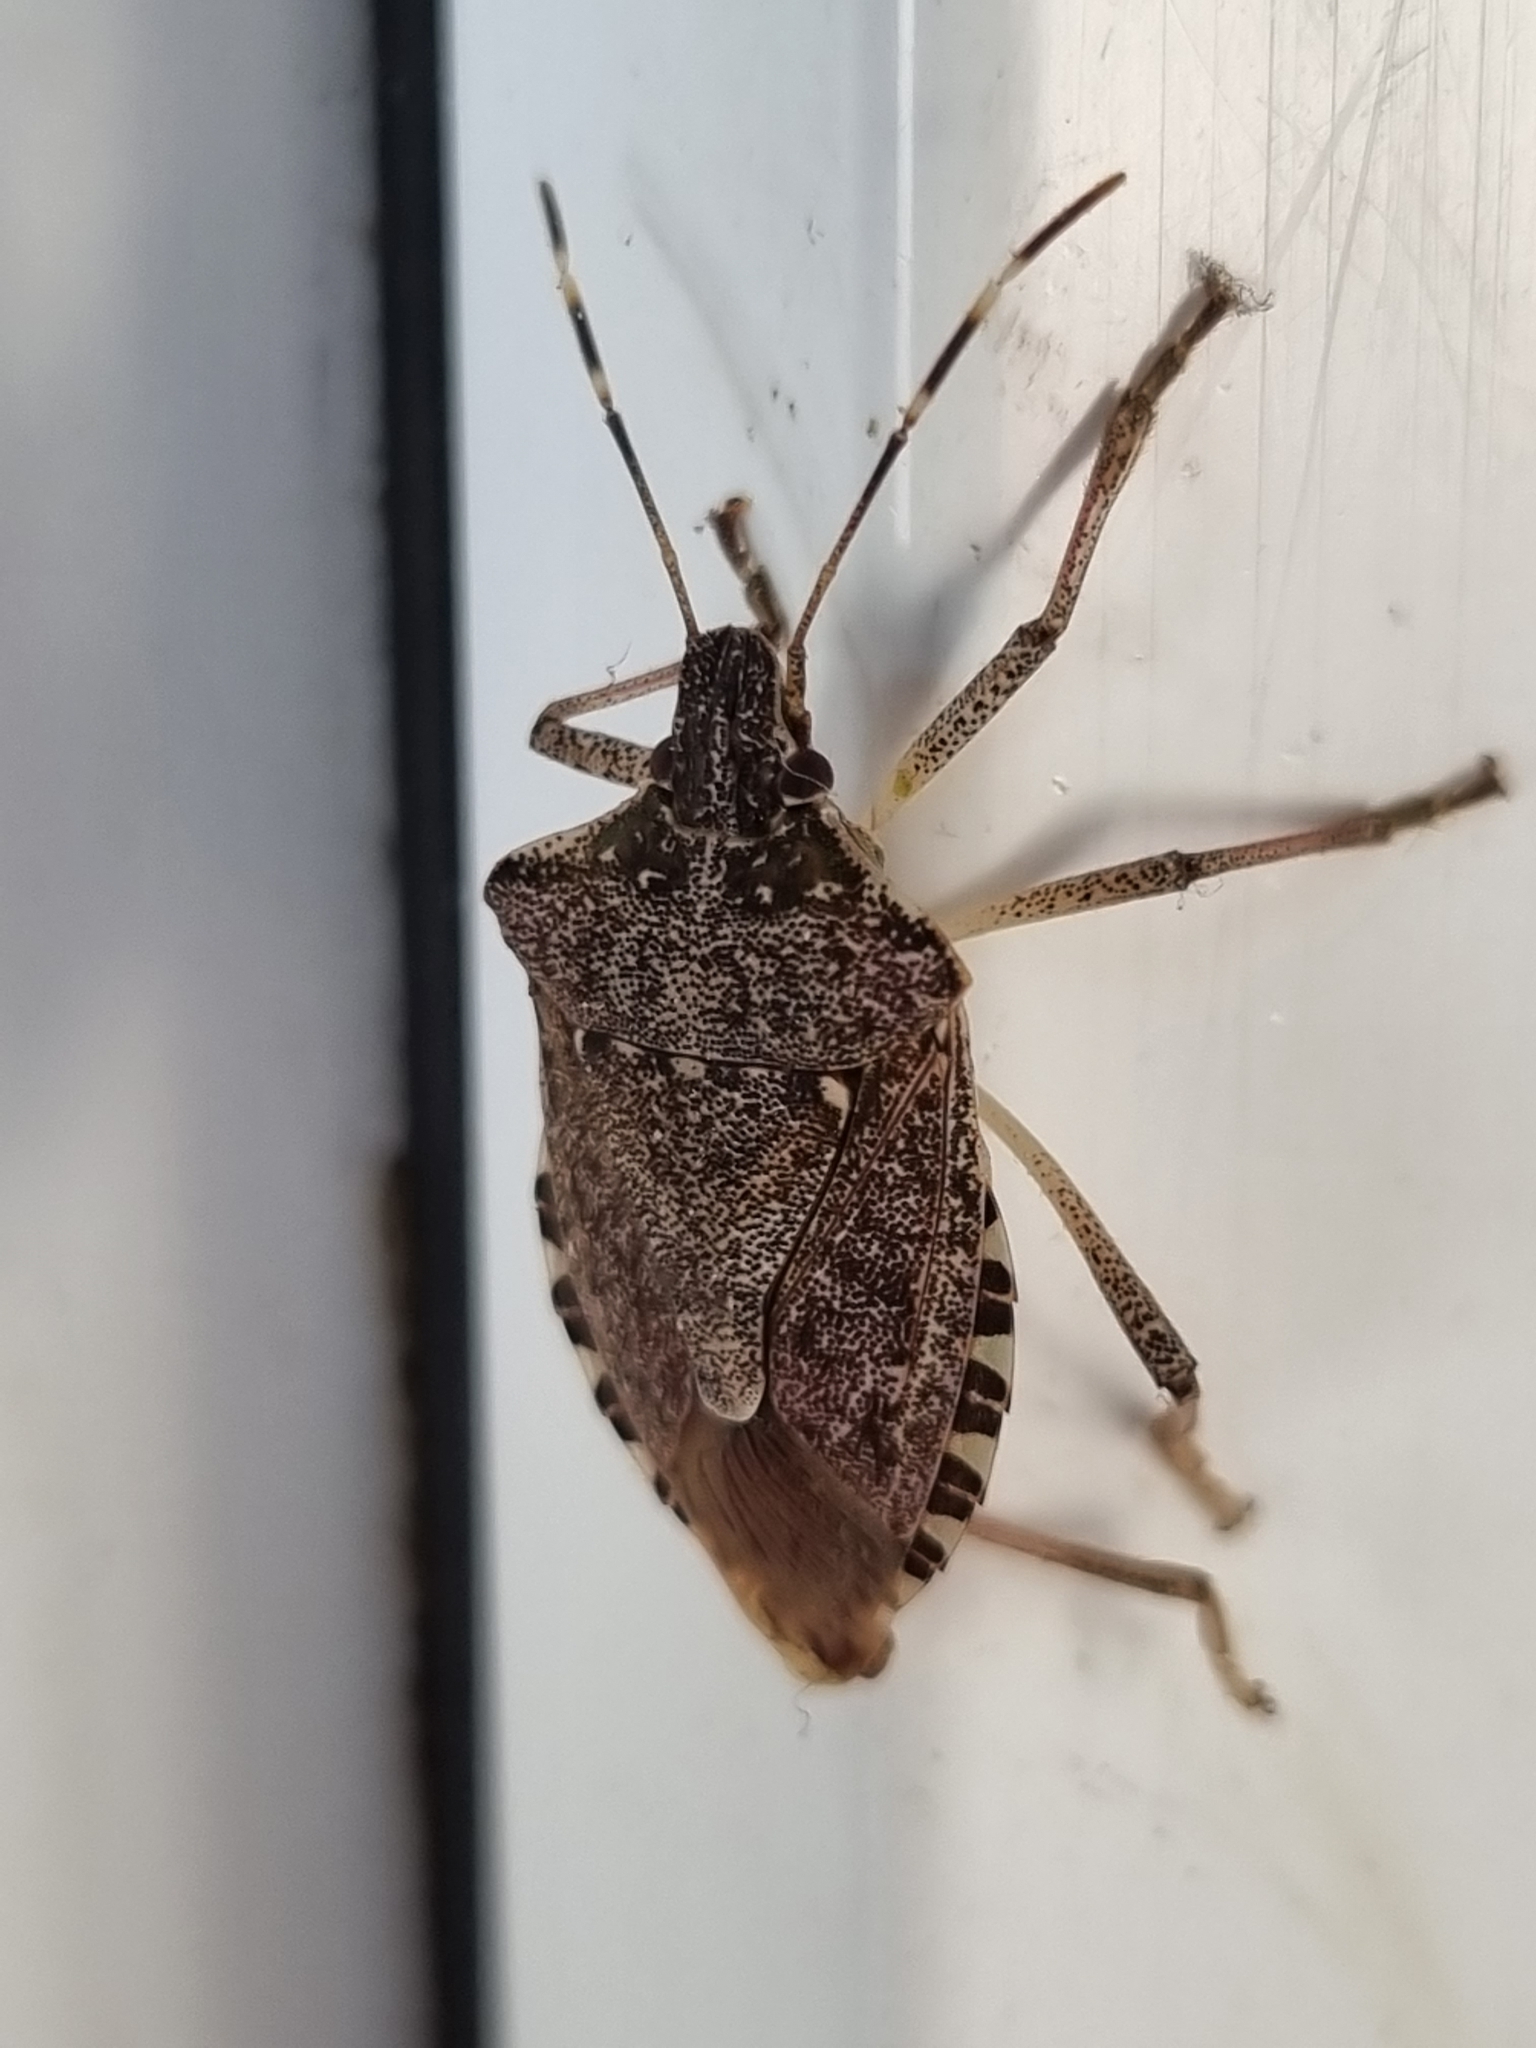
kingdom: Animalia
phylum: Arthropoda
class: Insecta
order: Hemiptera
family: Pentatomidae
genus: Halyomorpha
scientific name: Halyomorpha halys
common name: Brown marmorated stink bug
